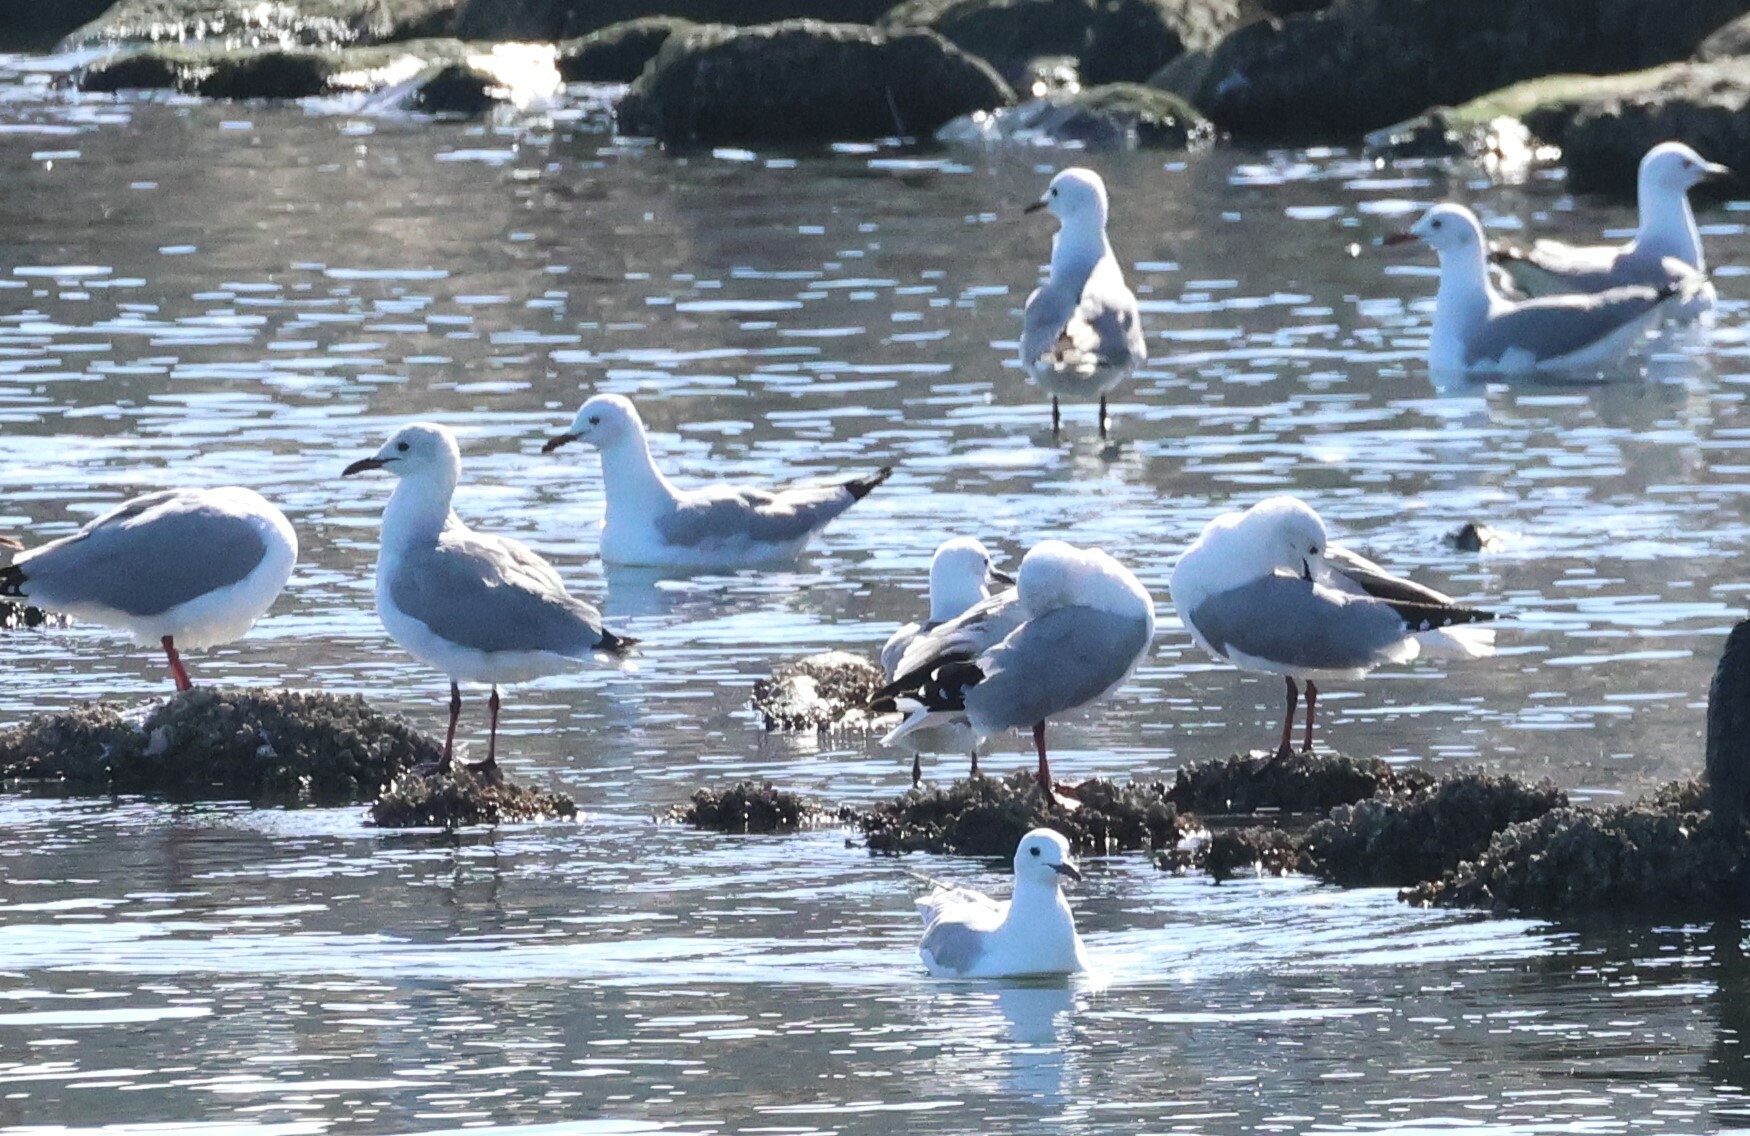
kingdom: Animalia
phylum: Chordata
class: Aves
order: Charadriiformes
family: Laridae
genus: Chroicocephalus
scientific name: Chroicocephalus hartlaubii
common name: Hartlaub's gull
